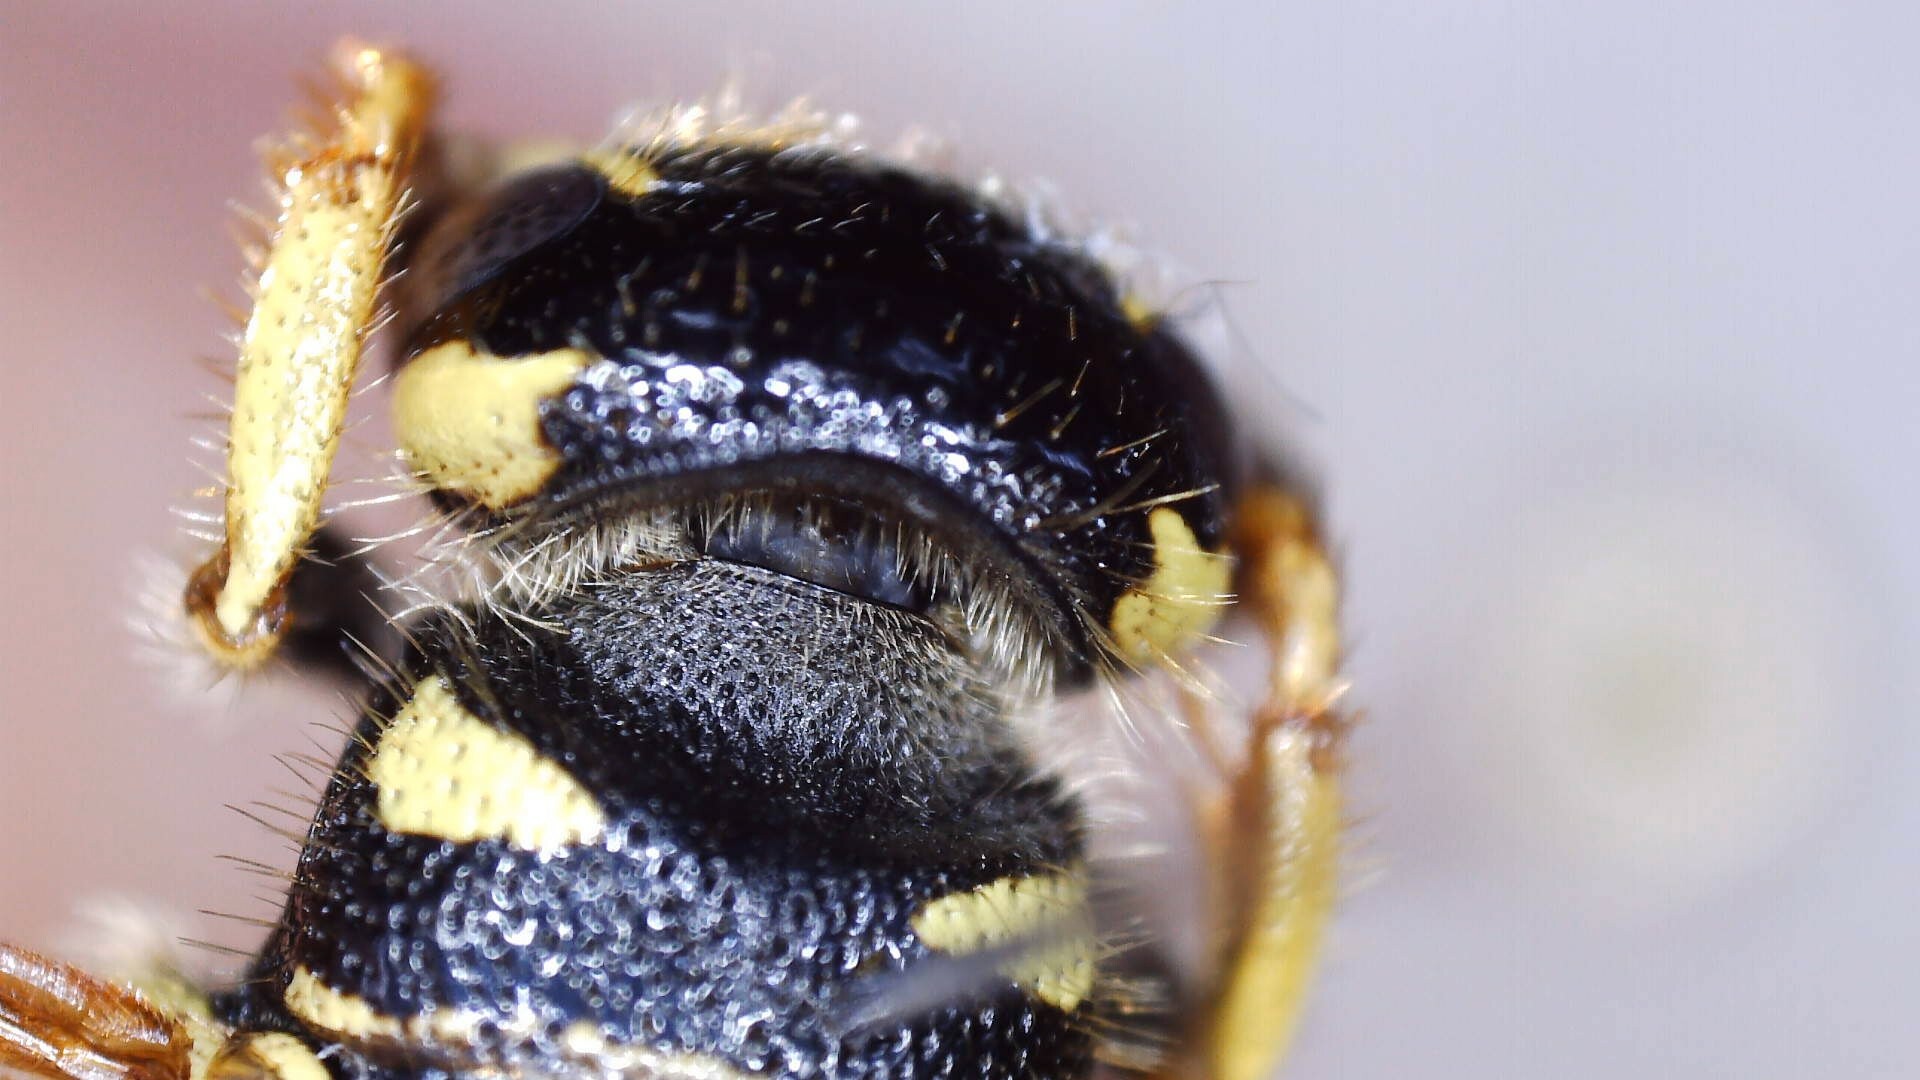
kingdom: Animalia
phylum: Arthropoda
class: Insecta
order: Hymenoptera
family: Tiphiidae
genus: Myzinum
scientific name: Myzinum quinquecinctum
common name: Five-banded thynnid wasp
